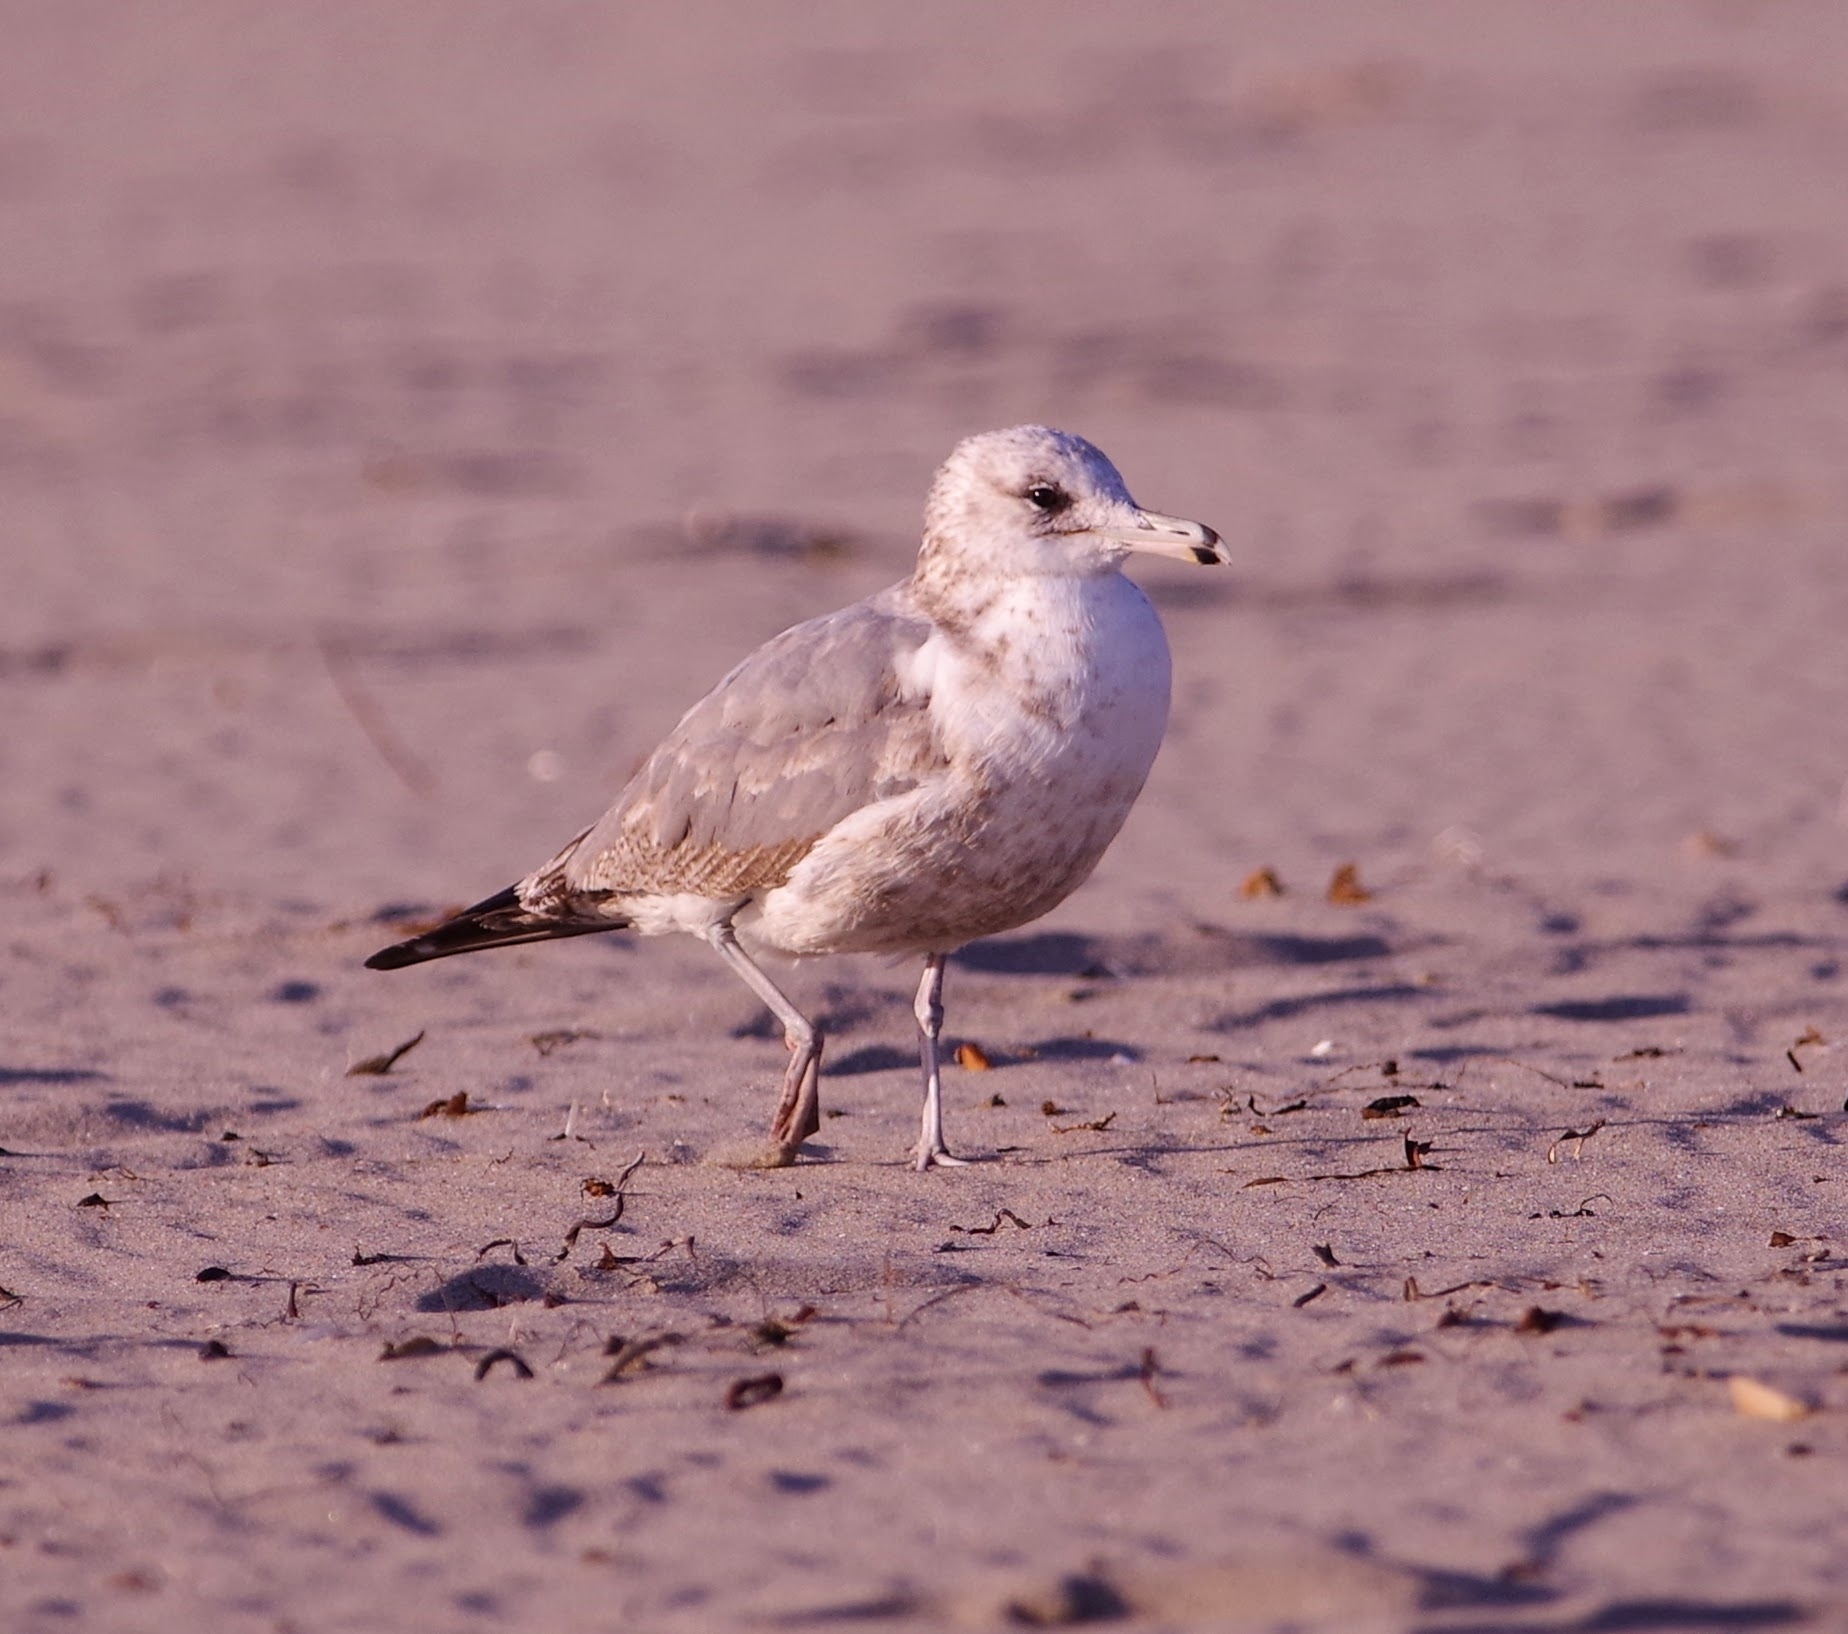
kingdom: Animalia
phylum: Chordata
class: Aves
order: Charadriiformes
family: Laridae
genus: Larus
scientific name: Larus californicus
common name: California gull
